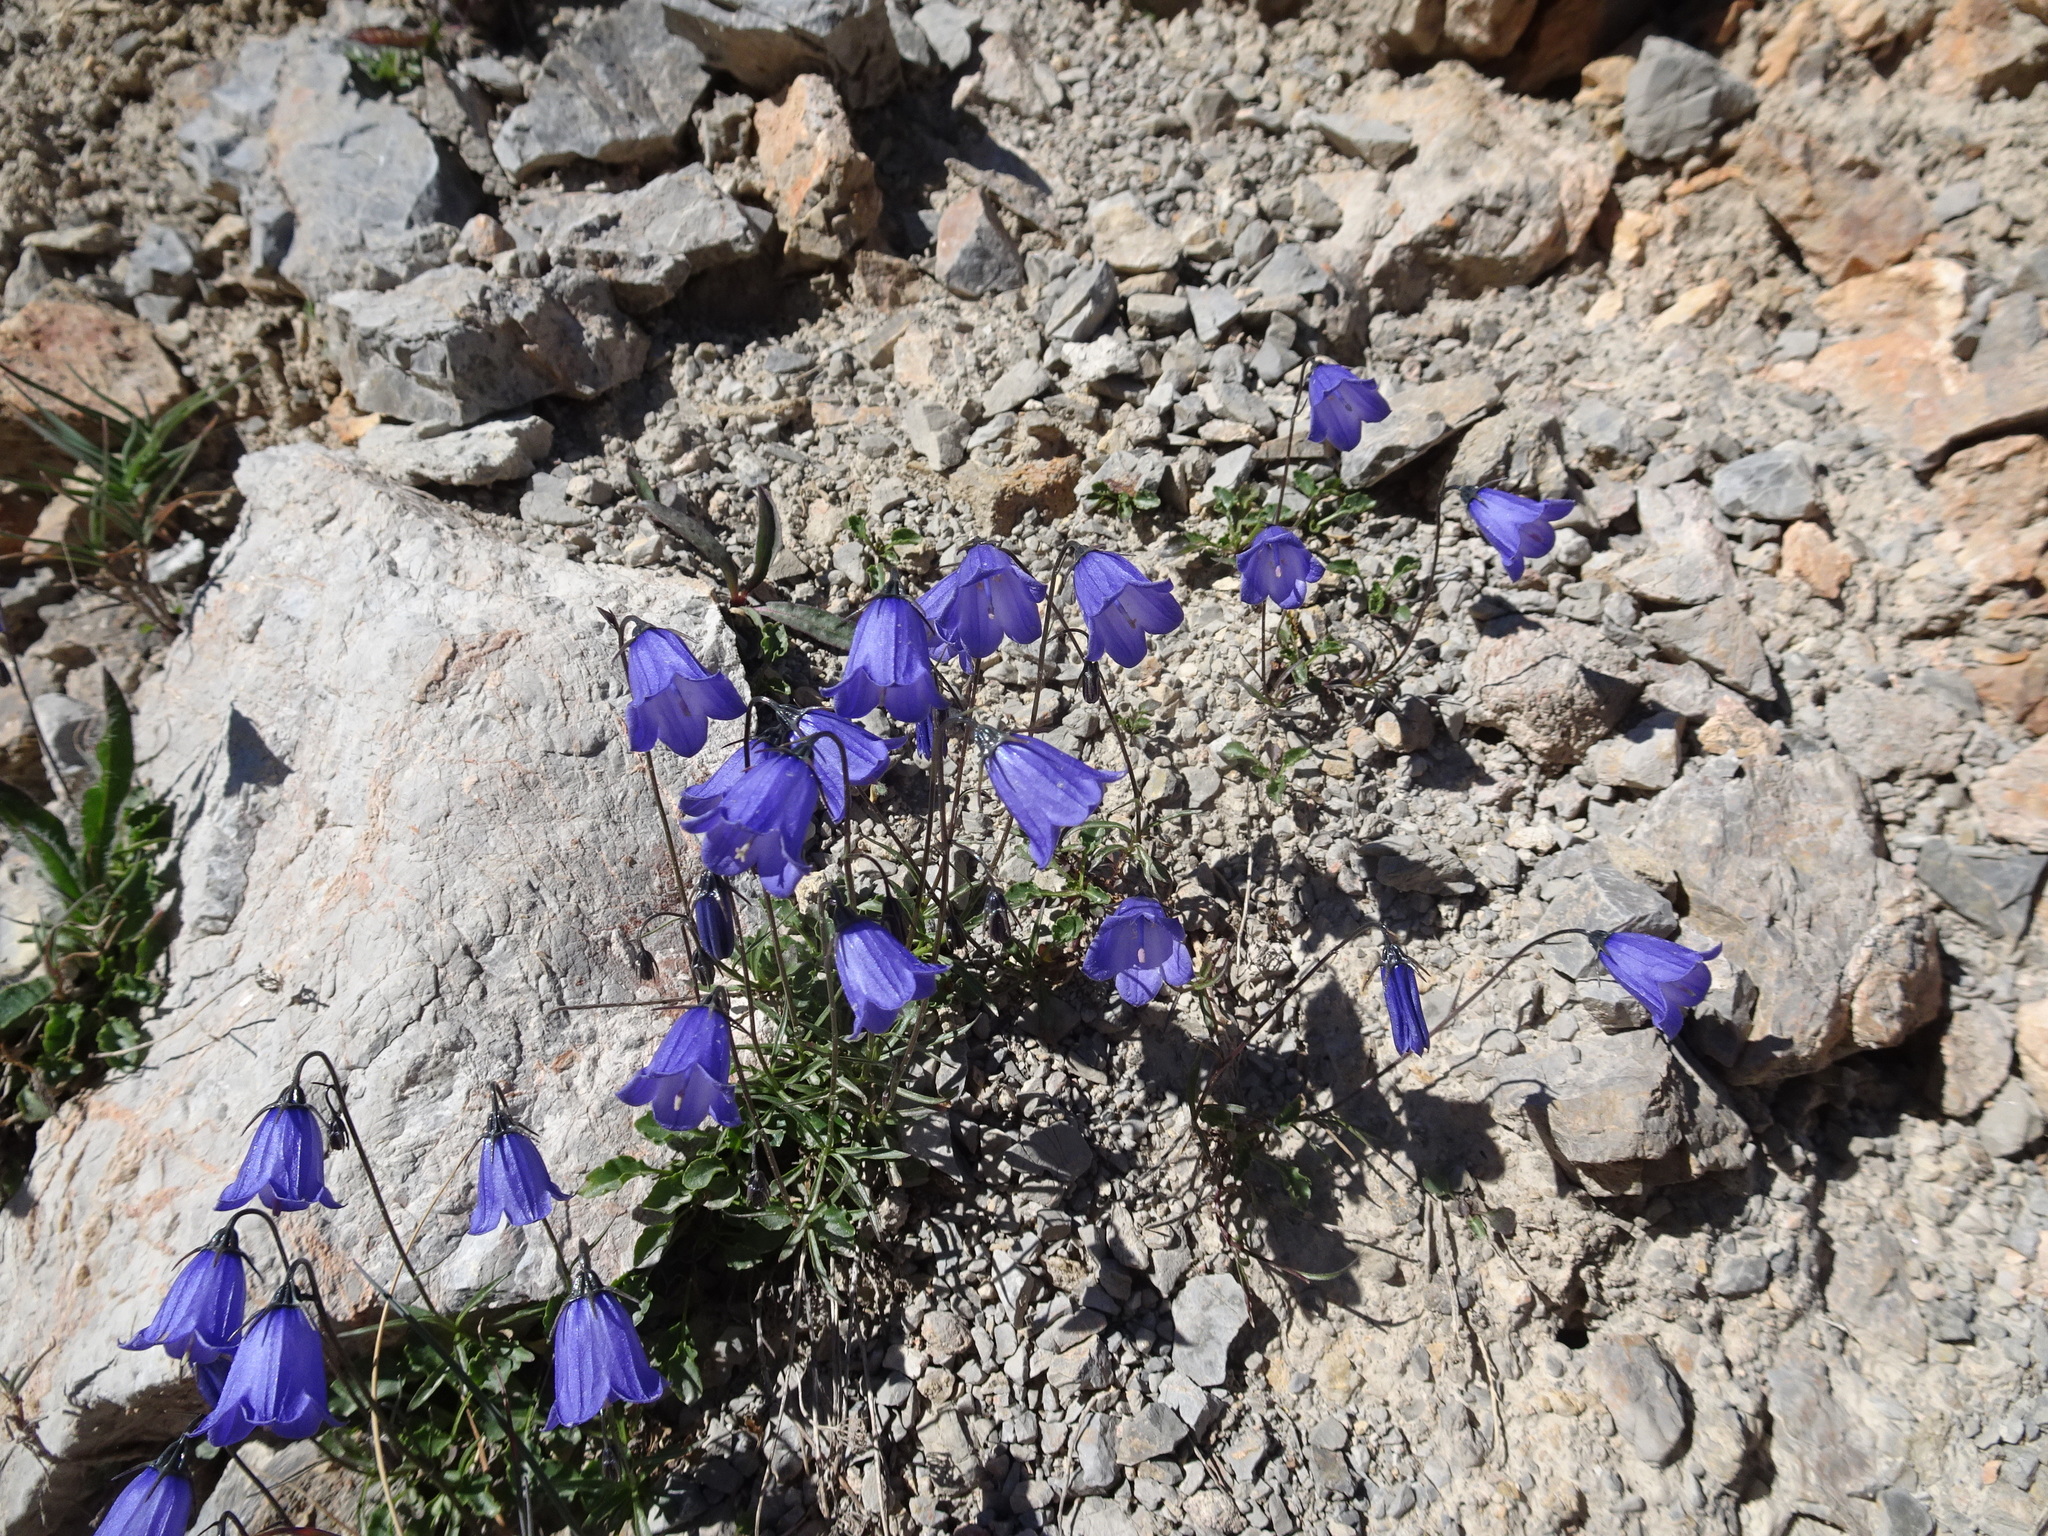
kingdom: Plantae
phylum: Tracheophyta
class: Magnoliopsida
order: Asterales
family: Campanulaceae
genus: Campanula
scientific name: Campanula cochleariifolia
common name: Fairies'-thimbles
